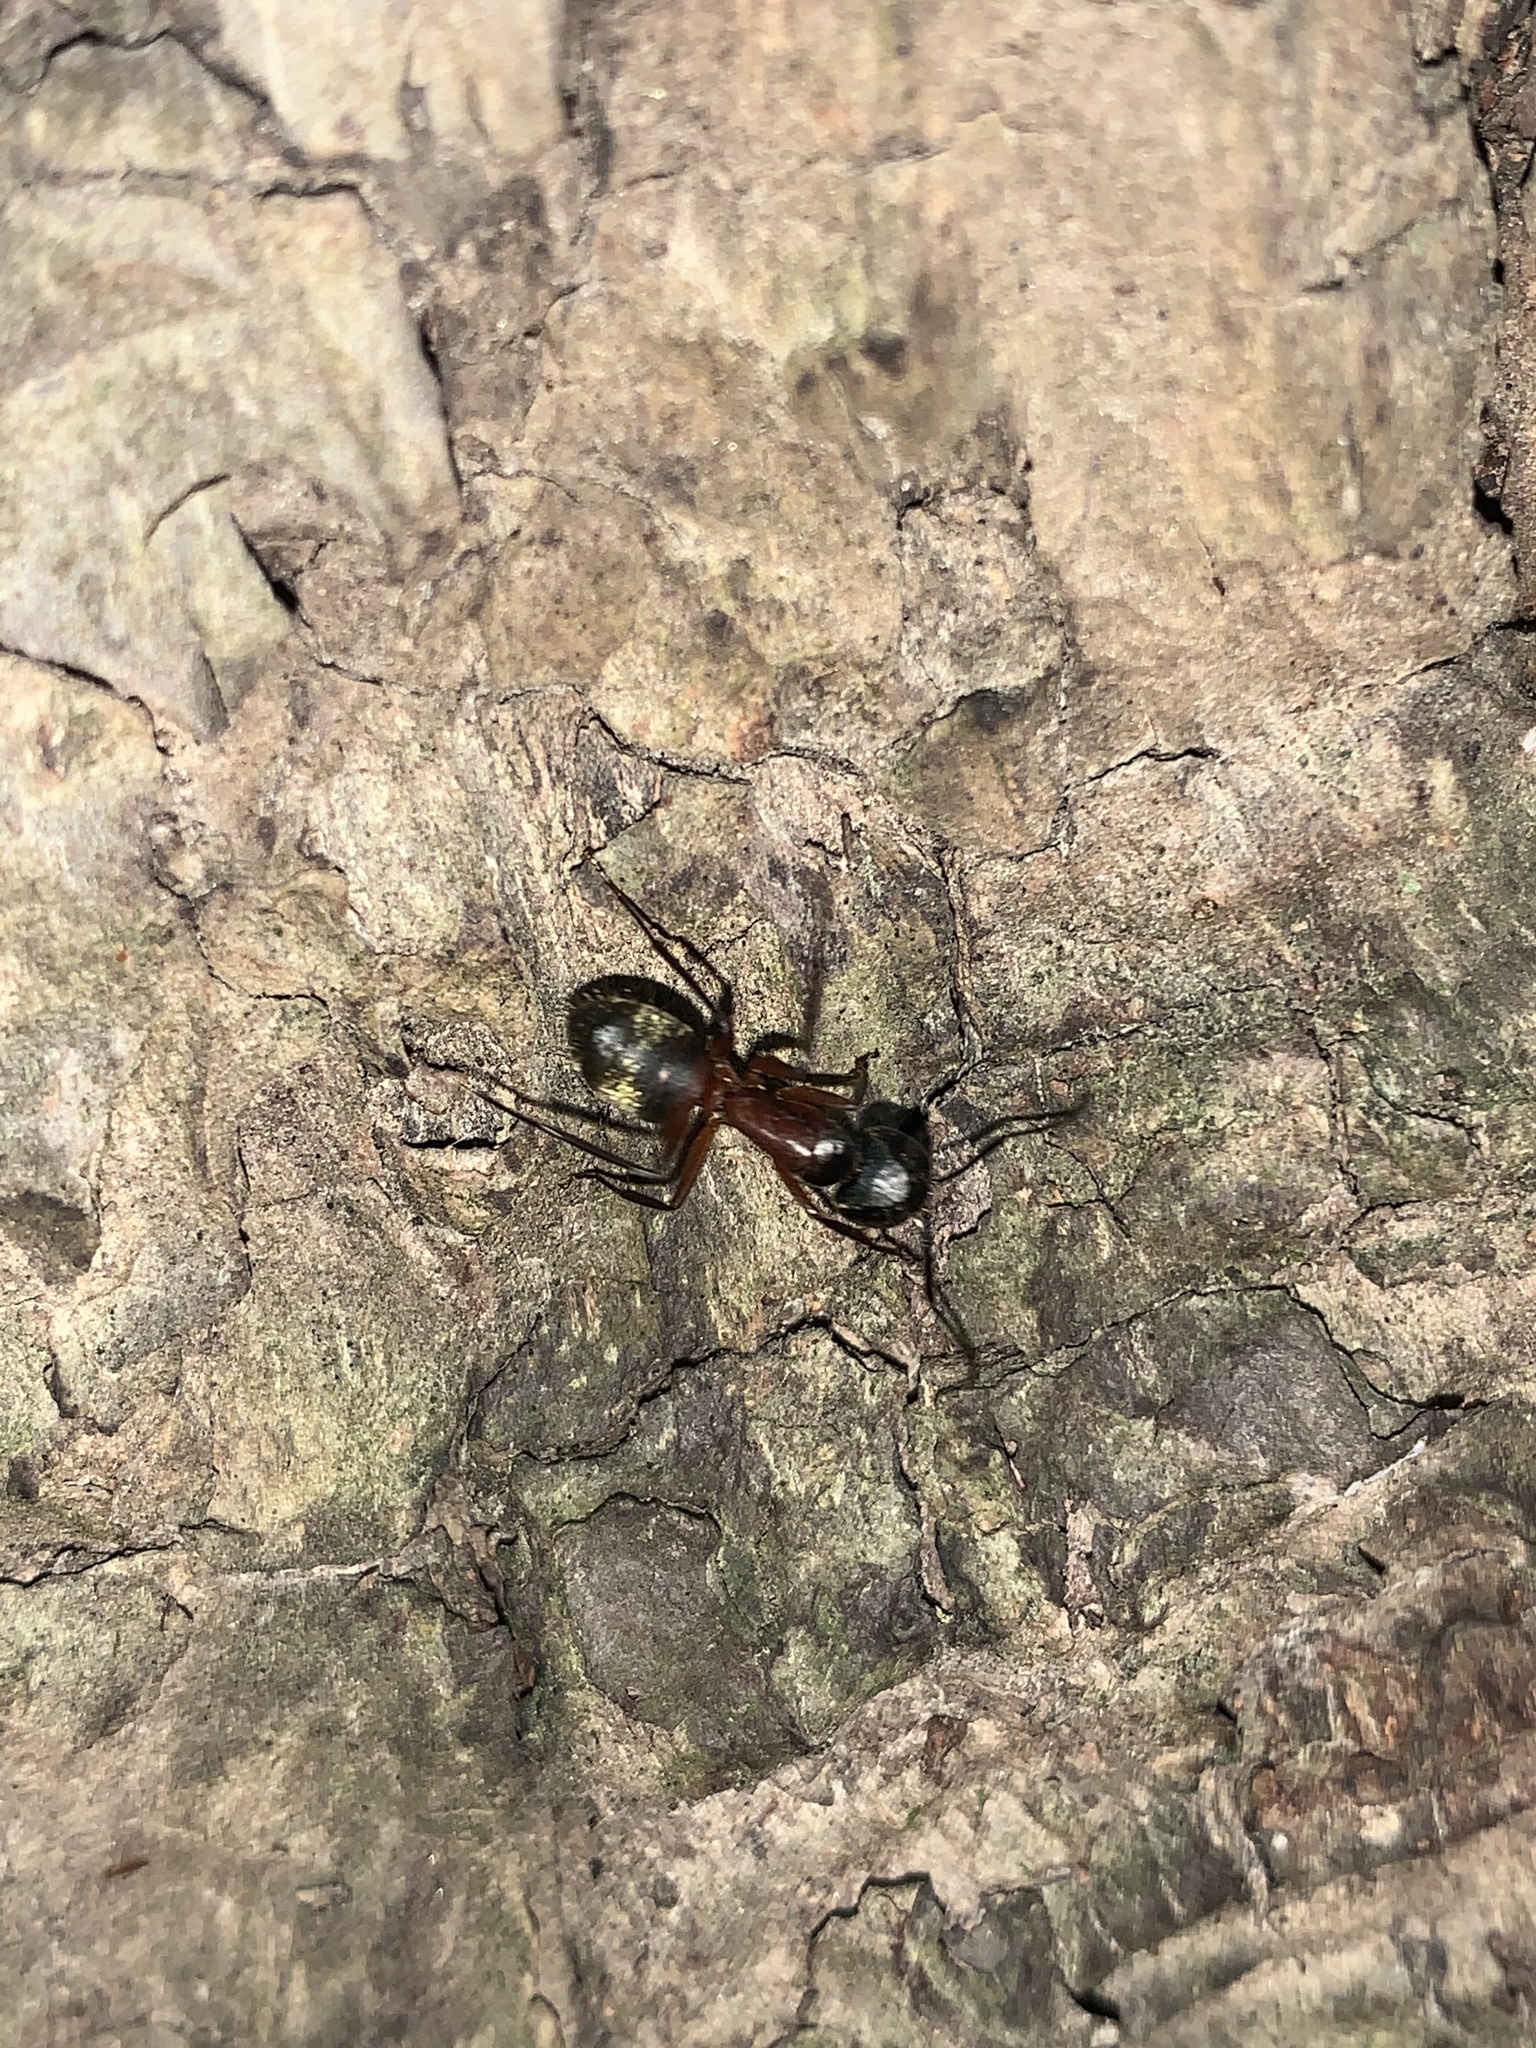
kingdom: Animalia
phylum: Arthropoda
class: Insecta
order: Hymenoptera
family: Formicidae
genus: Camponotus
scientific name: Camponotus chromaiodes
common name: Red carpenter ant
